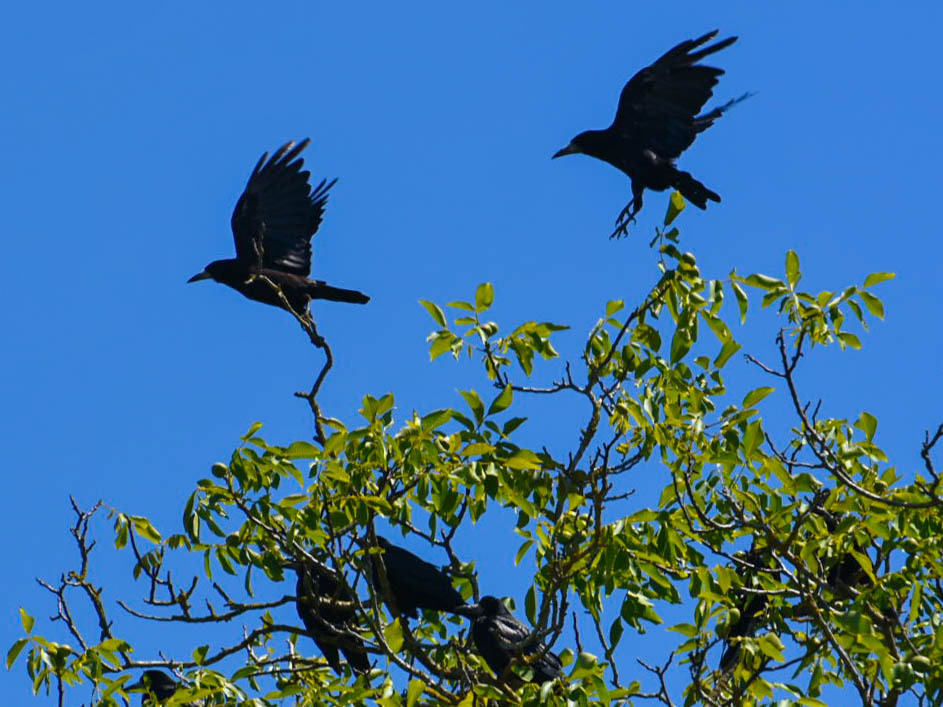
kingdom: Animalia
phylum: Chordata
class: Aves
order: Passeriformes
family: Corvidae
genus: Corvus
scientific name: Corvus frugilegus
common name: Rook
